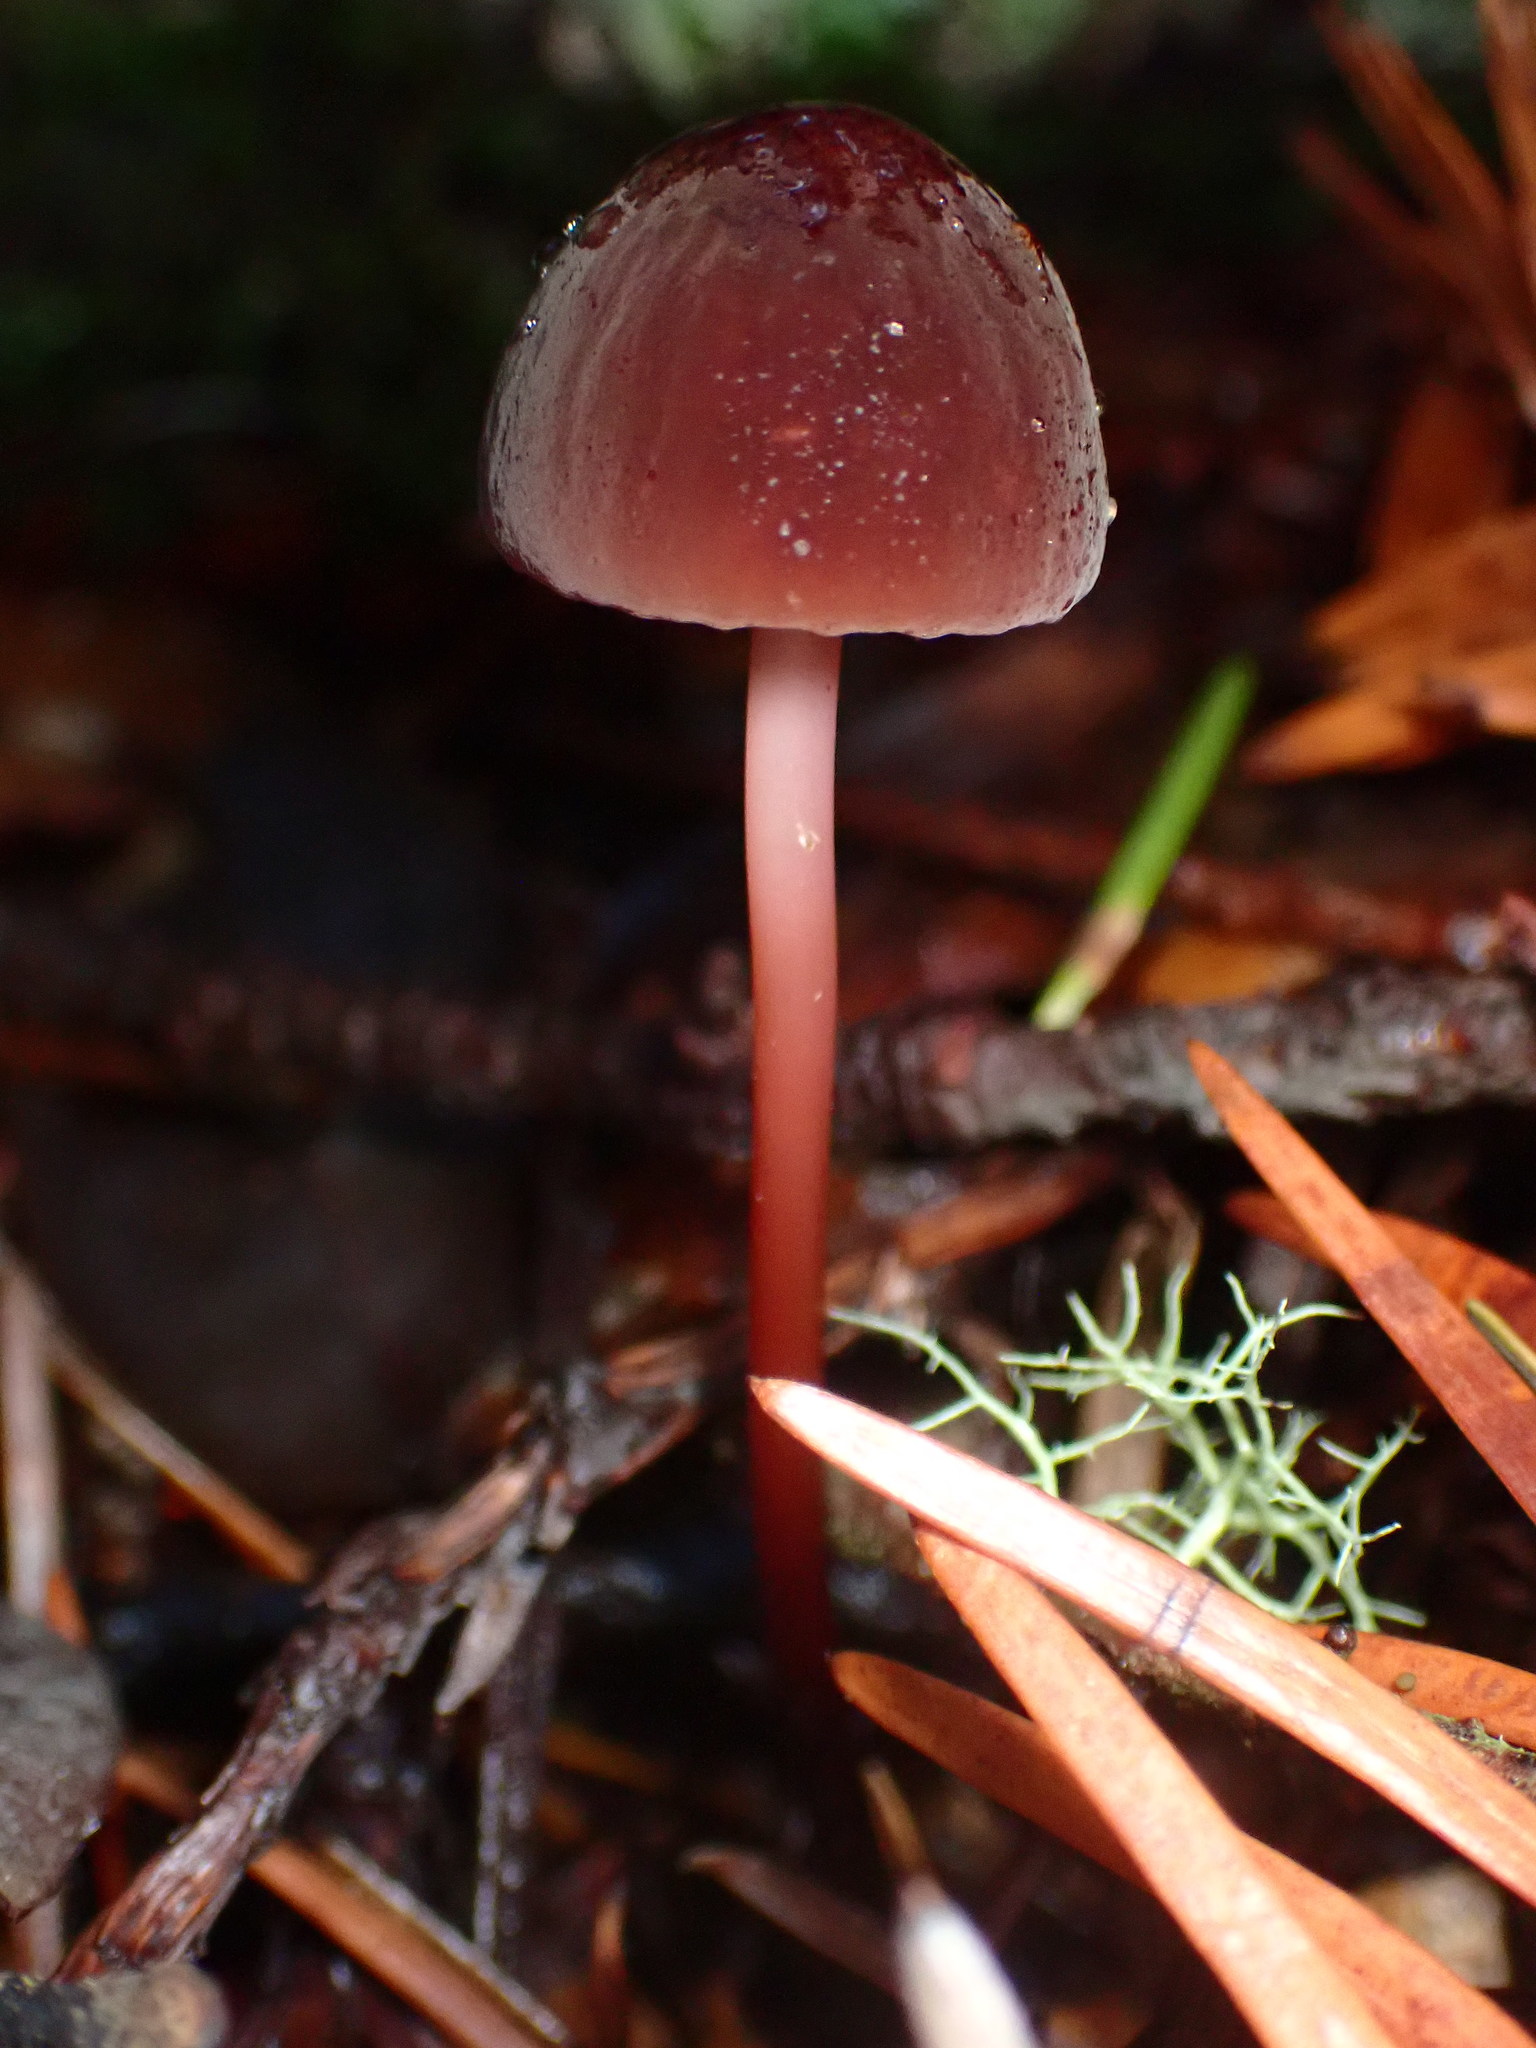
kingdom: Fungi
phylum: Basidiomycota
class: Agaricomycetes
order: Agaricales
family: Marasmiaceae
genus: Marasmius
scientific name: Marasmius plicatulus
